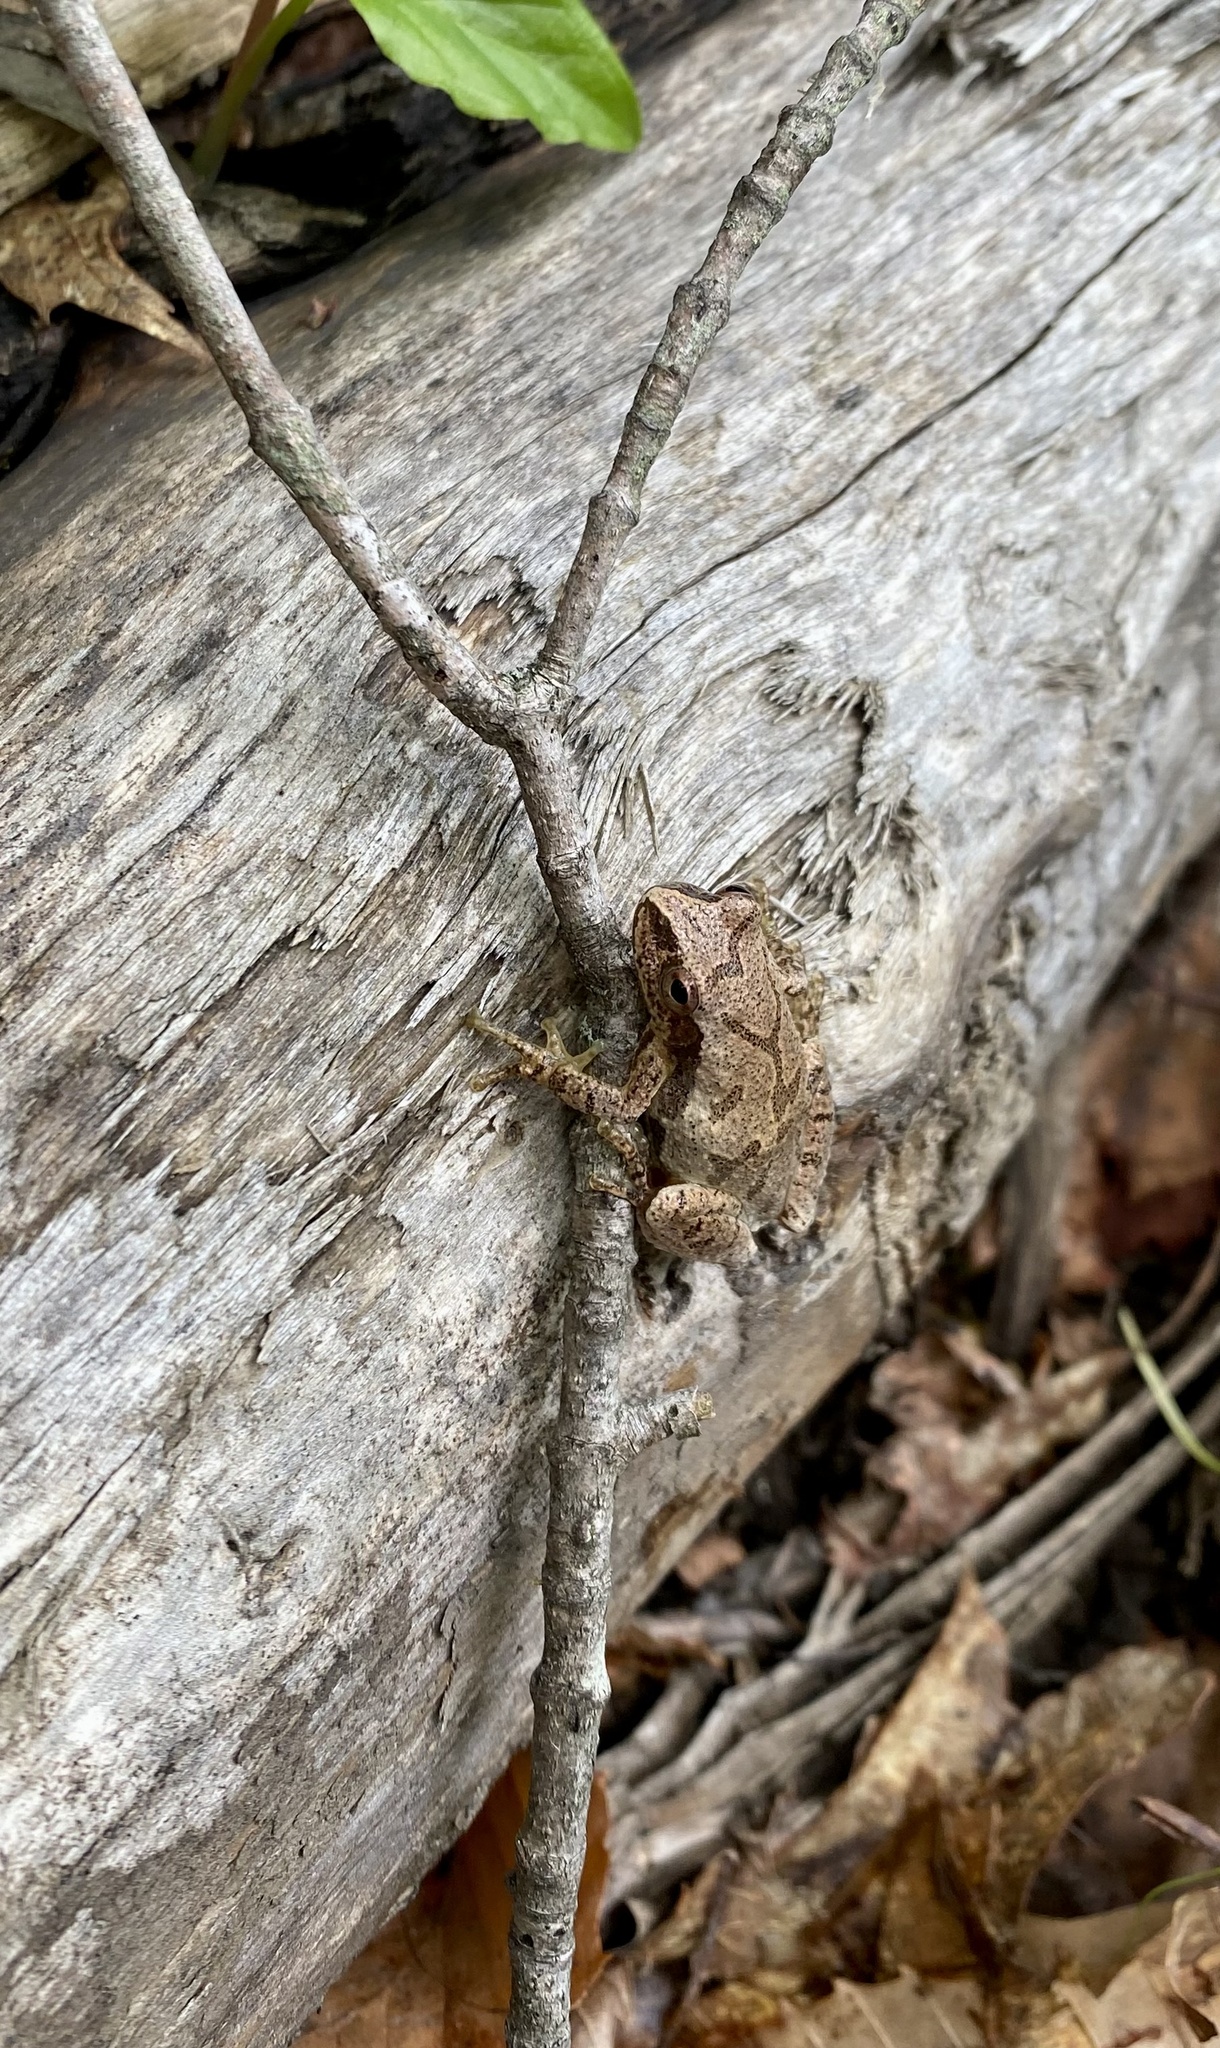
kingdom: Animalia
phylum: Chordata
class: Amphibia
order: Anura
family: Hylidae
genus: Pseudacris
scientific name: Pseudacris crucifer
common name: Spring peeper
